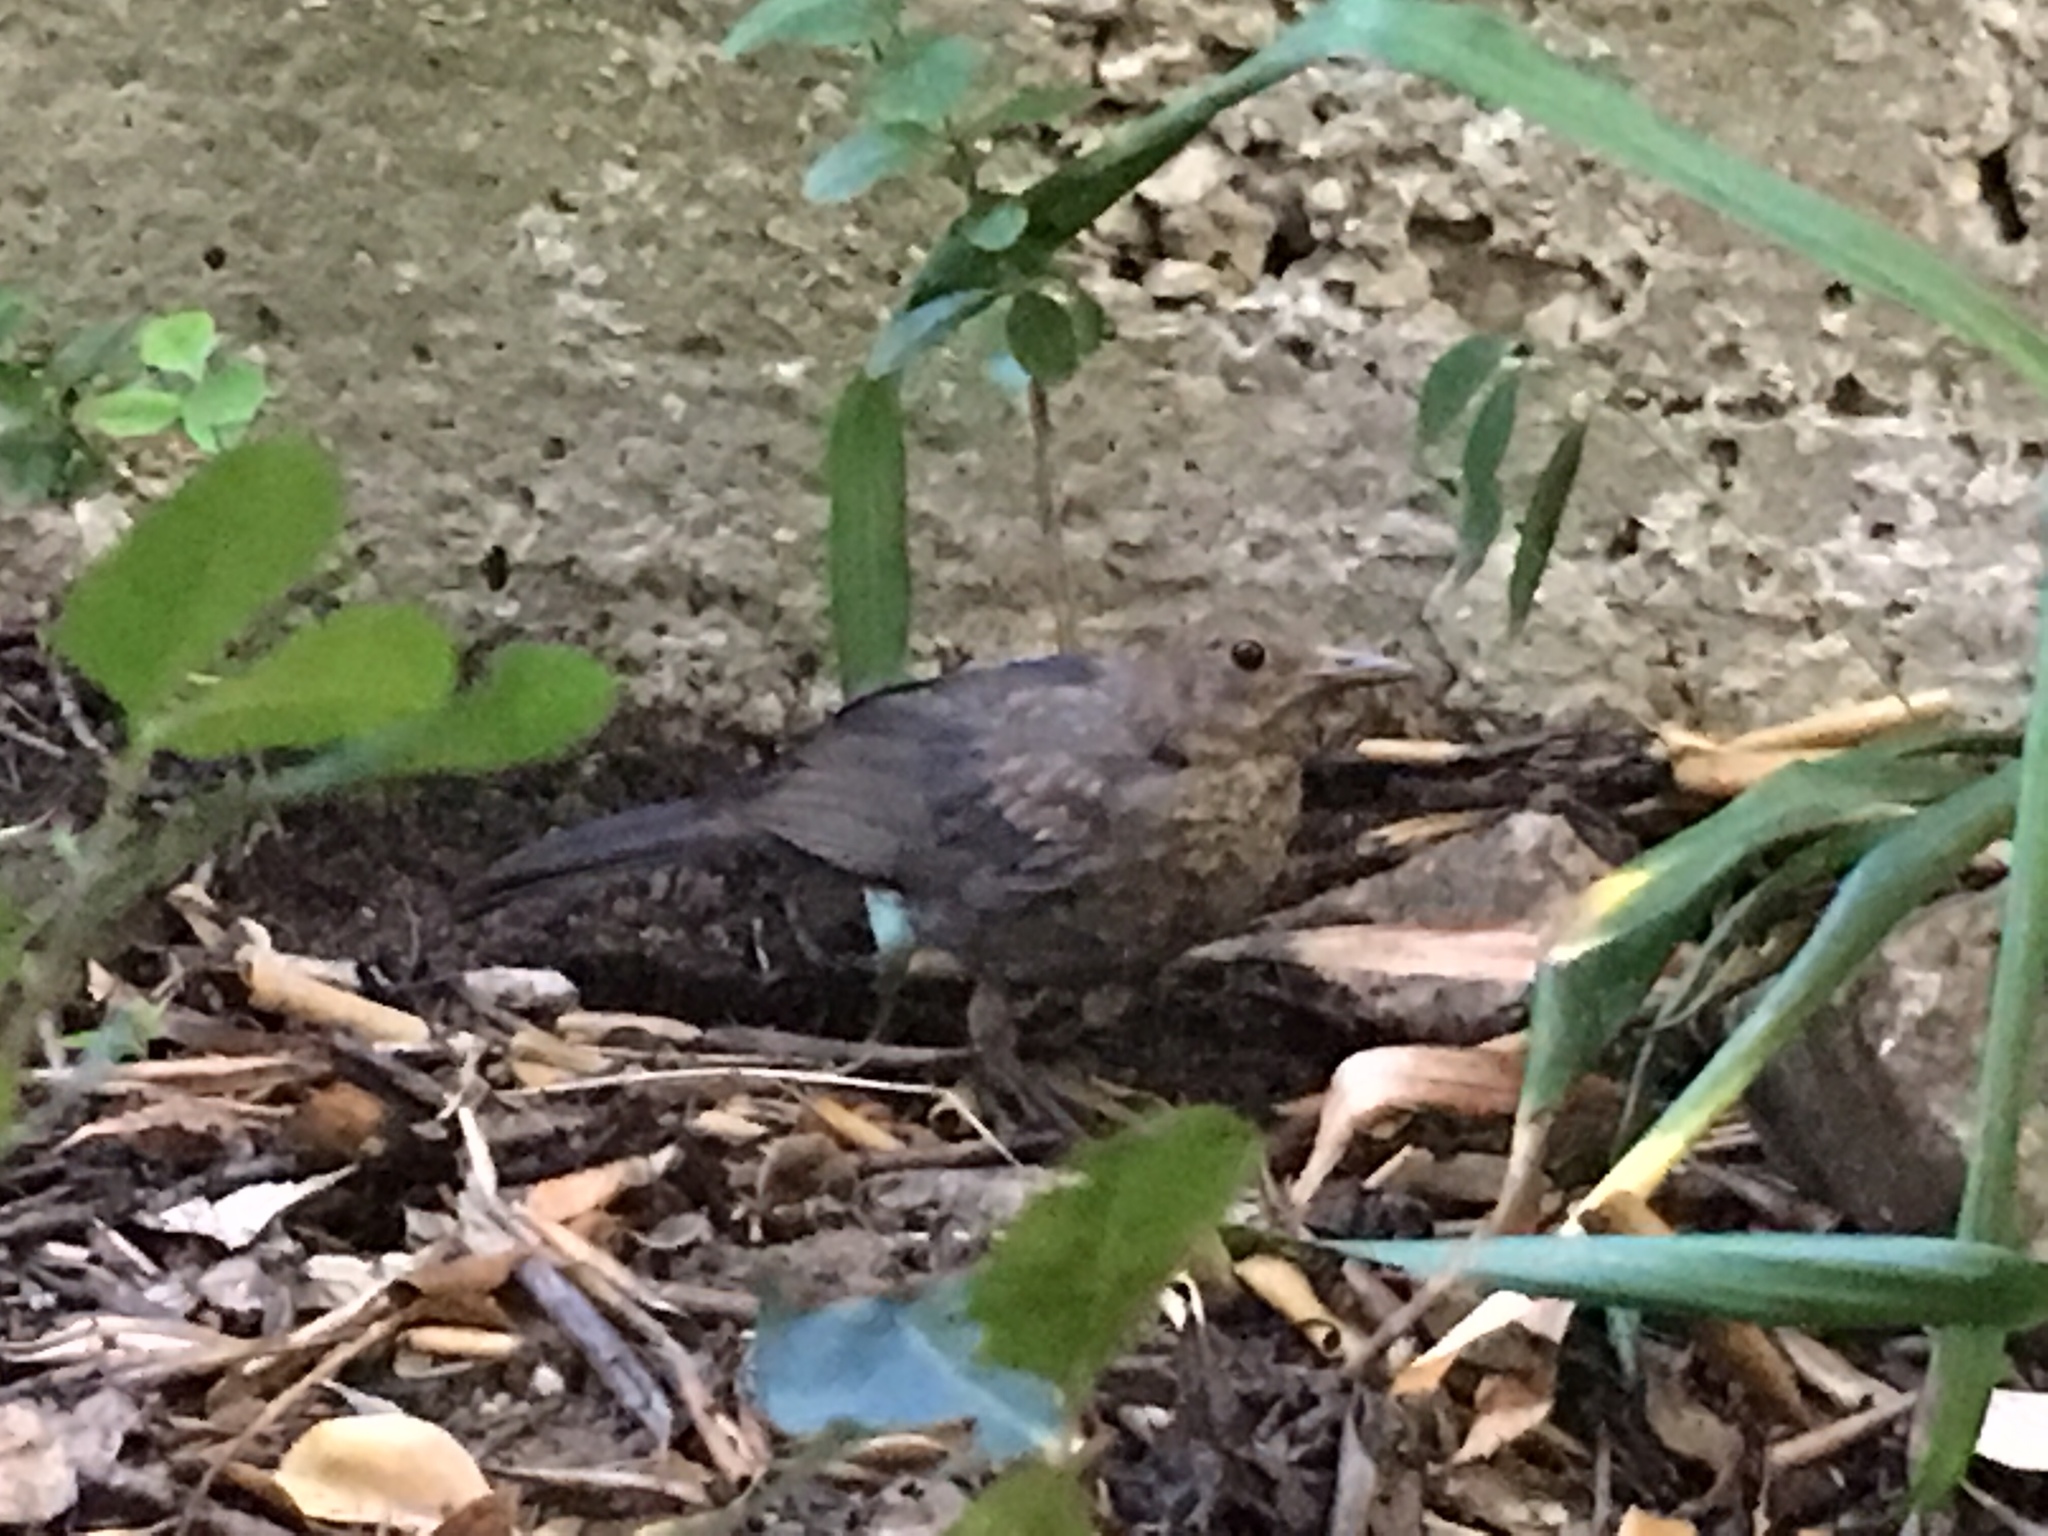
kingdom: Animalia
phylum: Chordata
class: Aves
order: Passeriformes
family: Turdidae
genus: Turdus
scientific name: Turdus merula
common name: Common blackbird
